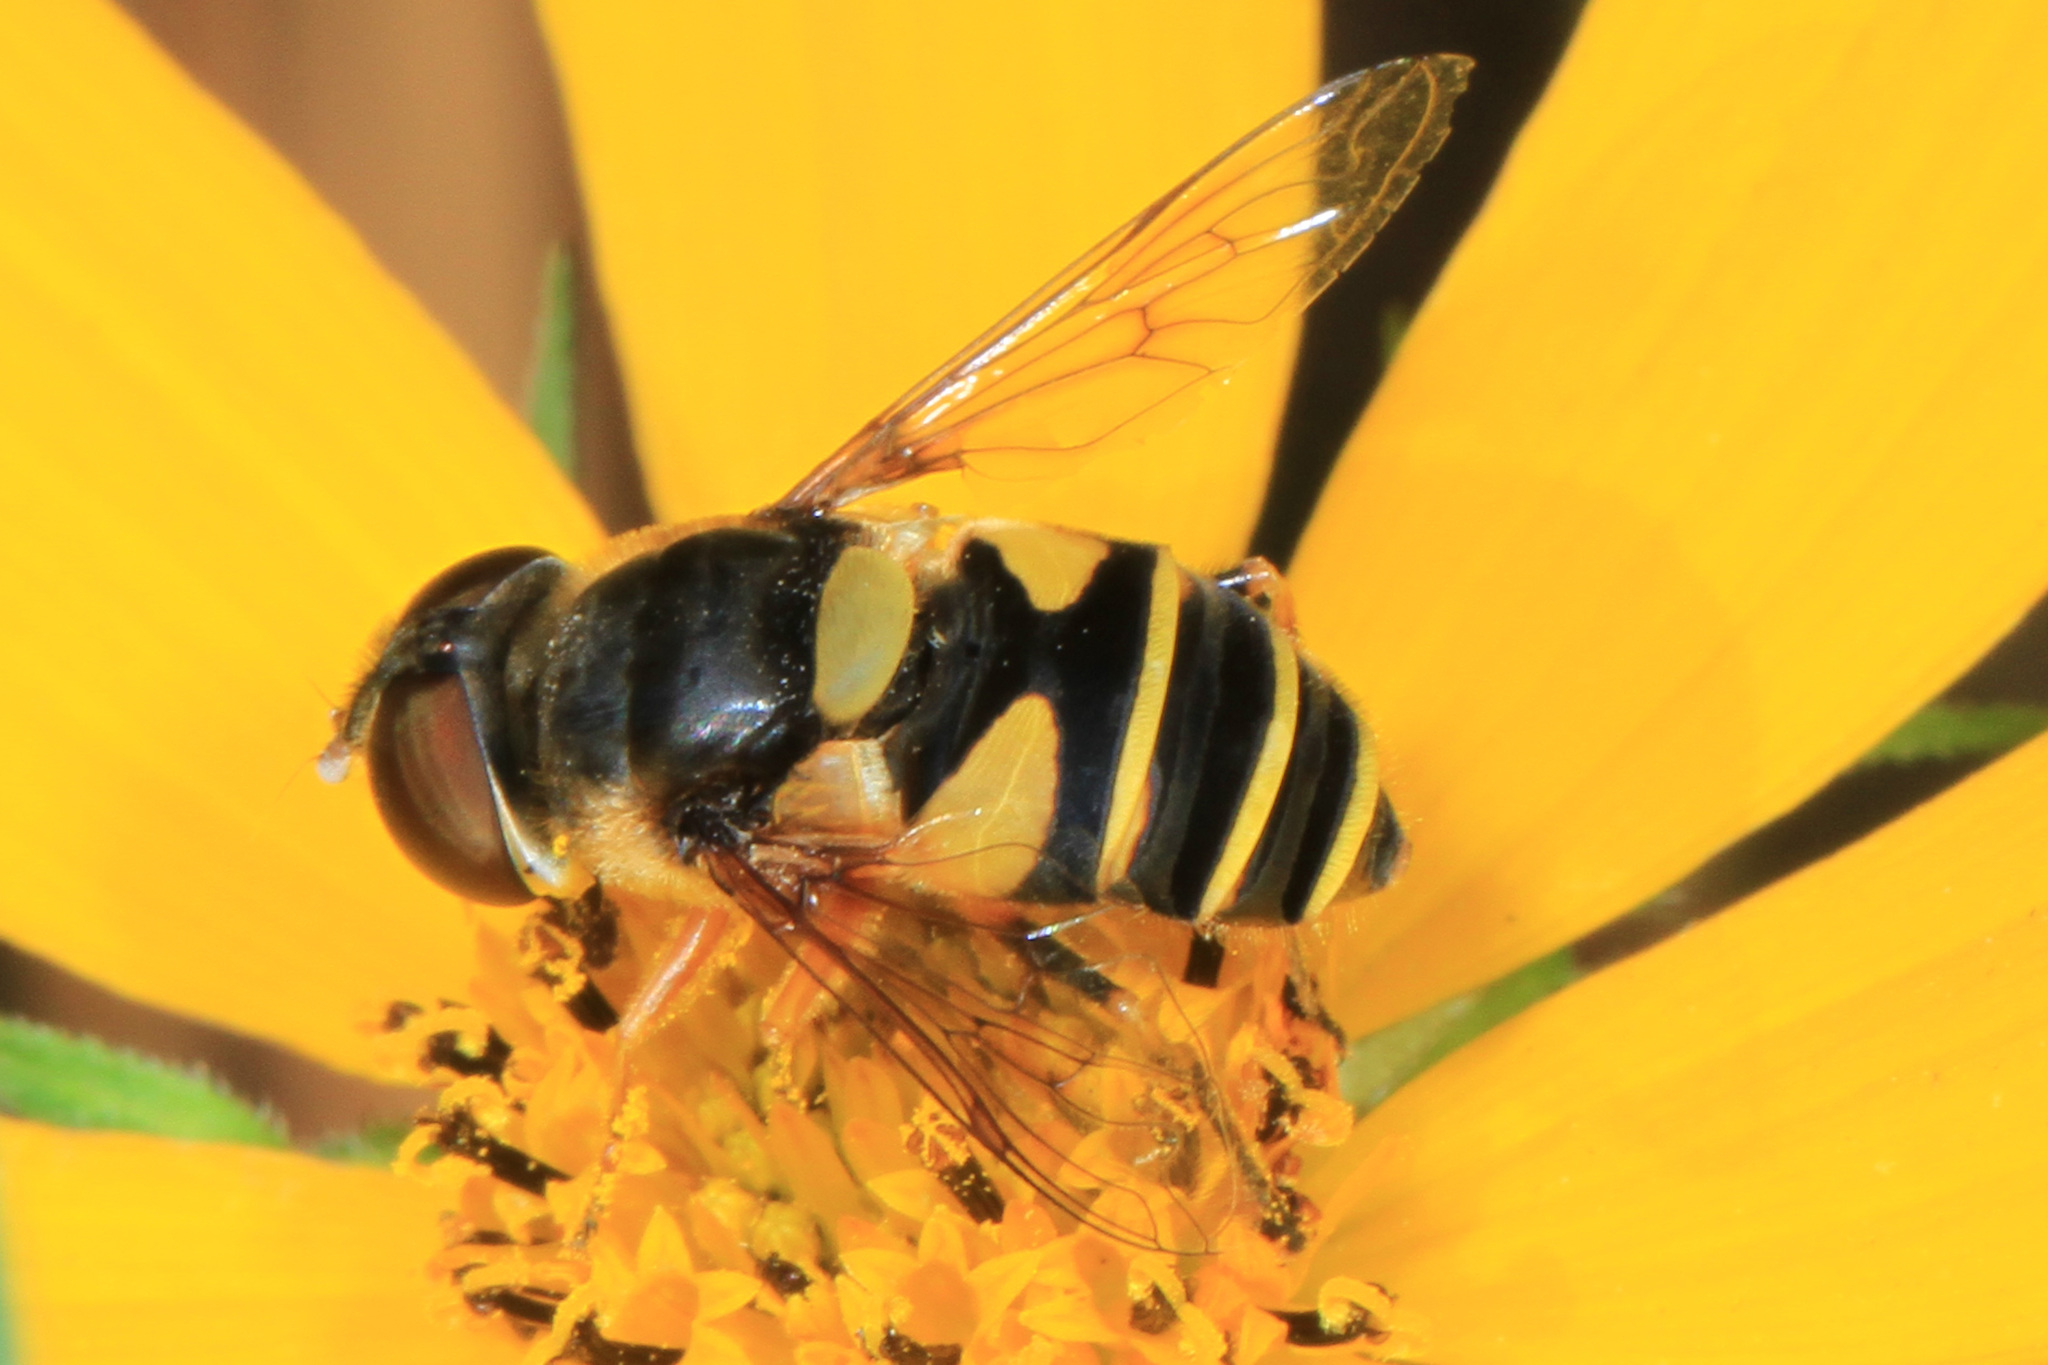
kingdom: Animalia
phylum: Arthropoda
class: Insecta
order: Diptera
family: Syrphidae
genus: Eristalis
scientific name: Eristalis transversa
